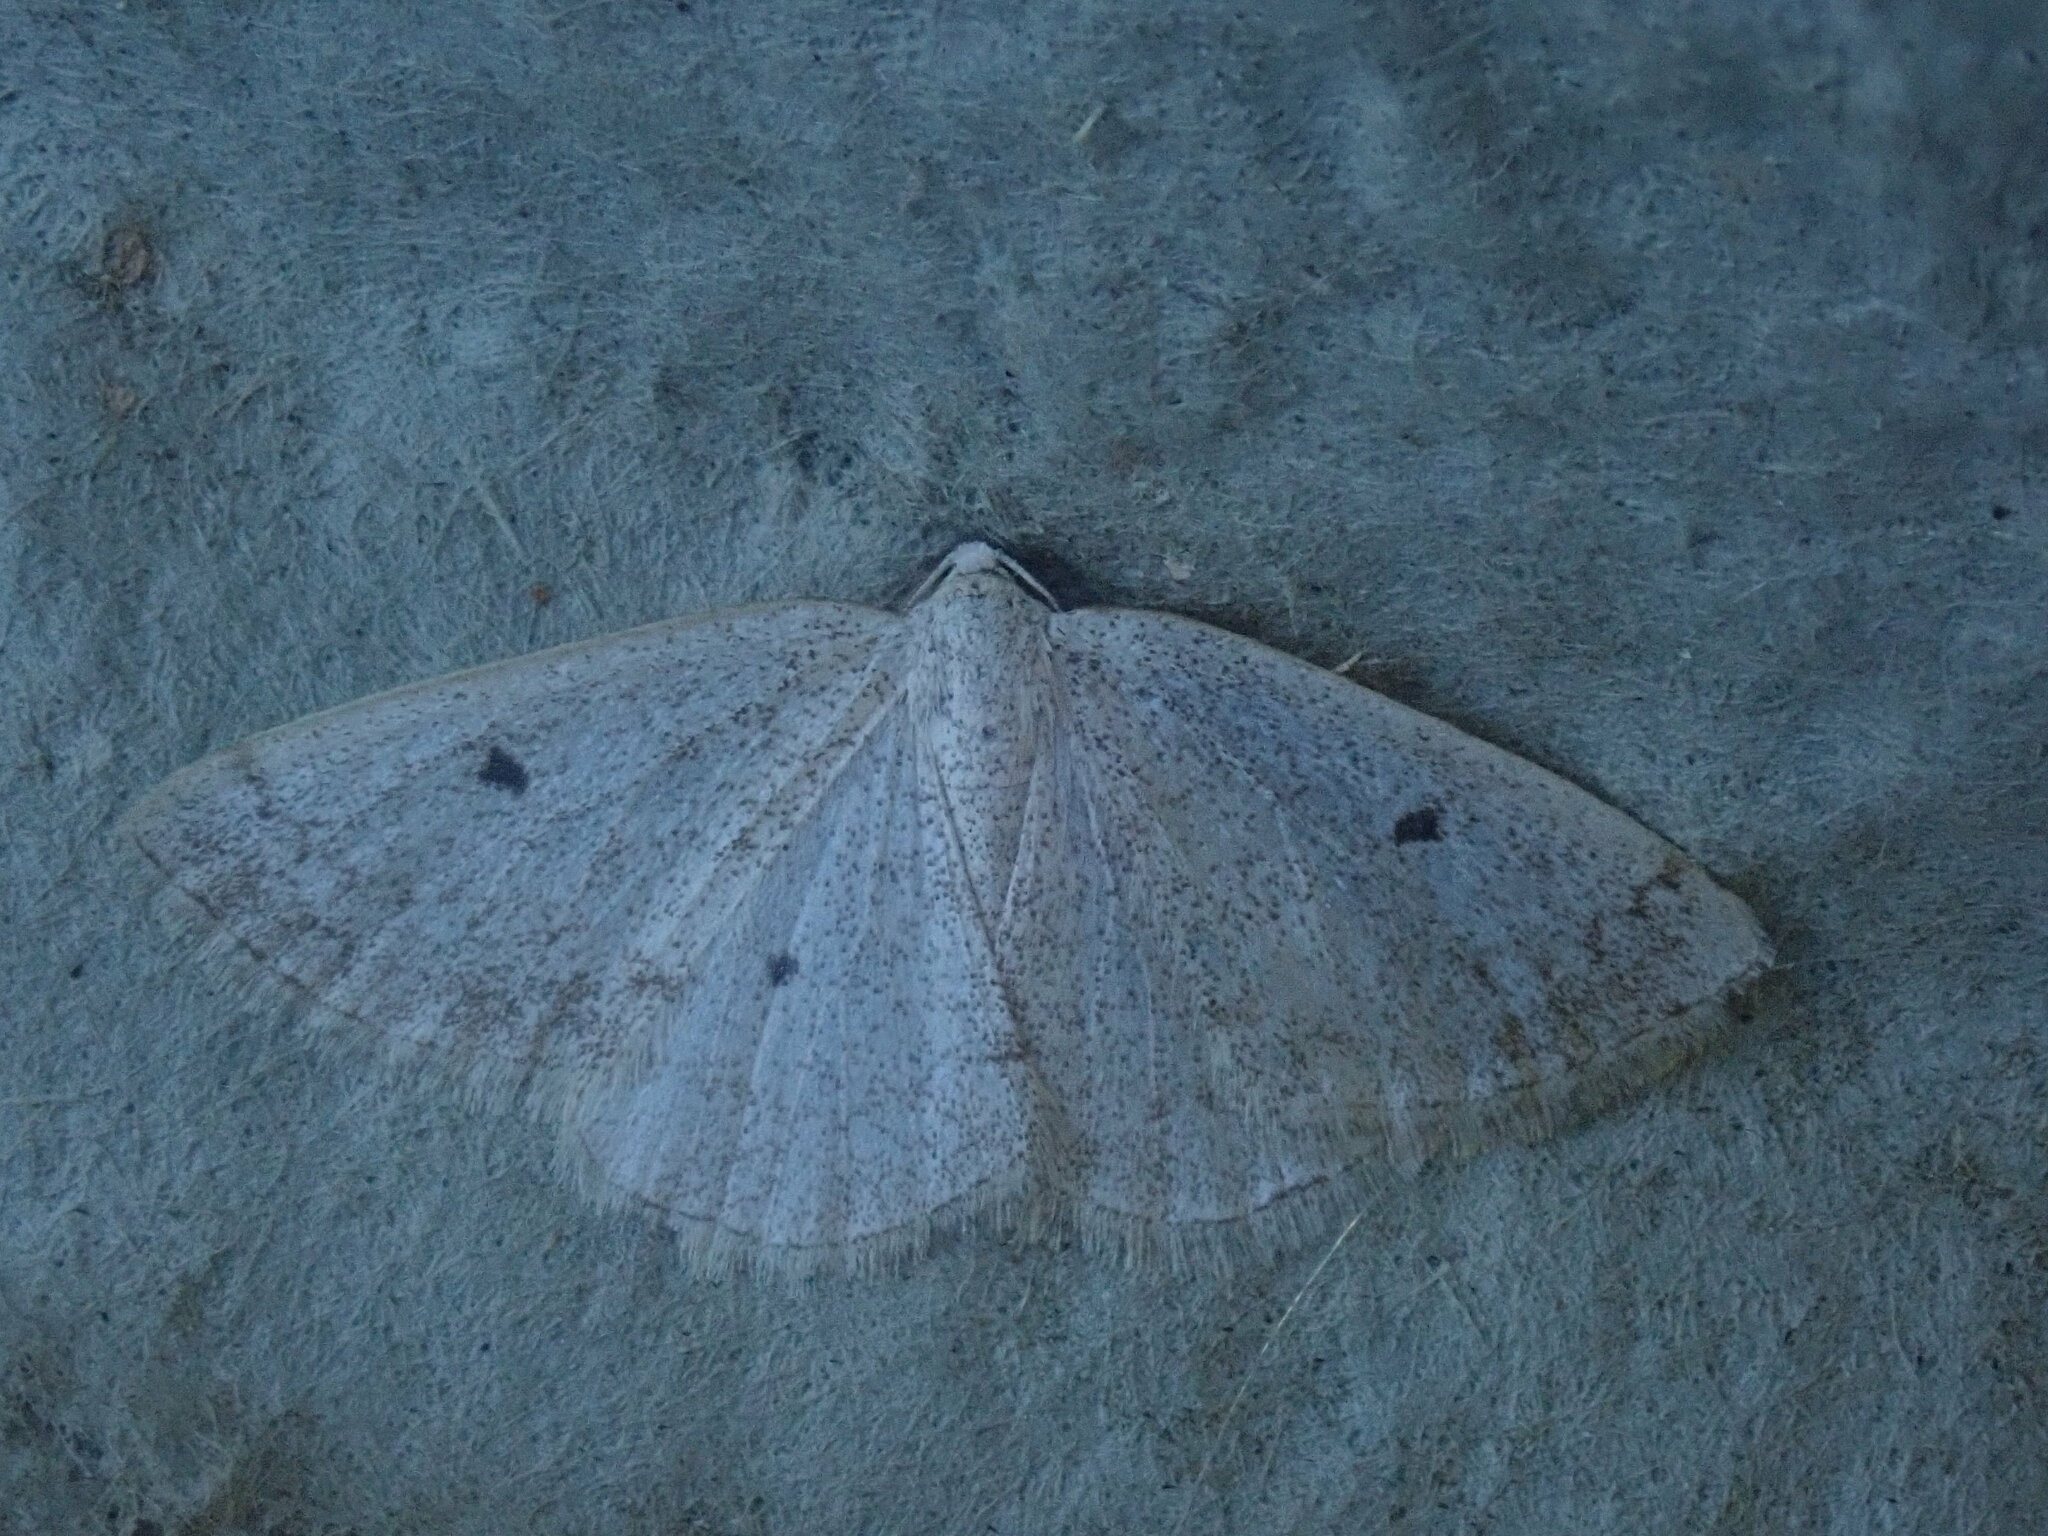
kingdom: Animalia
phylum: Arthropoda
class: Insecta
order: Lepidoptera
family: Geometridae
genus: Lomographa
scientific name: Lomographa glomeraria
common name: Gray spring moth
